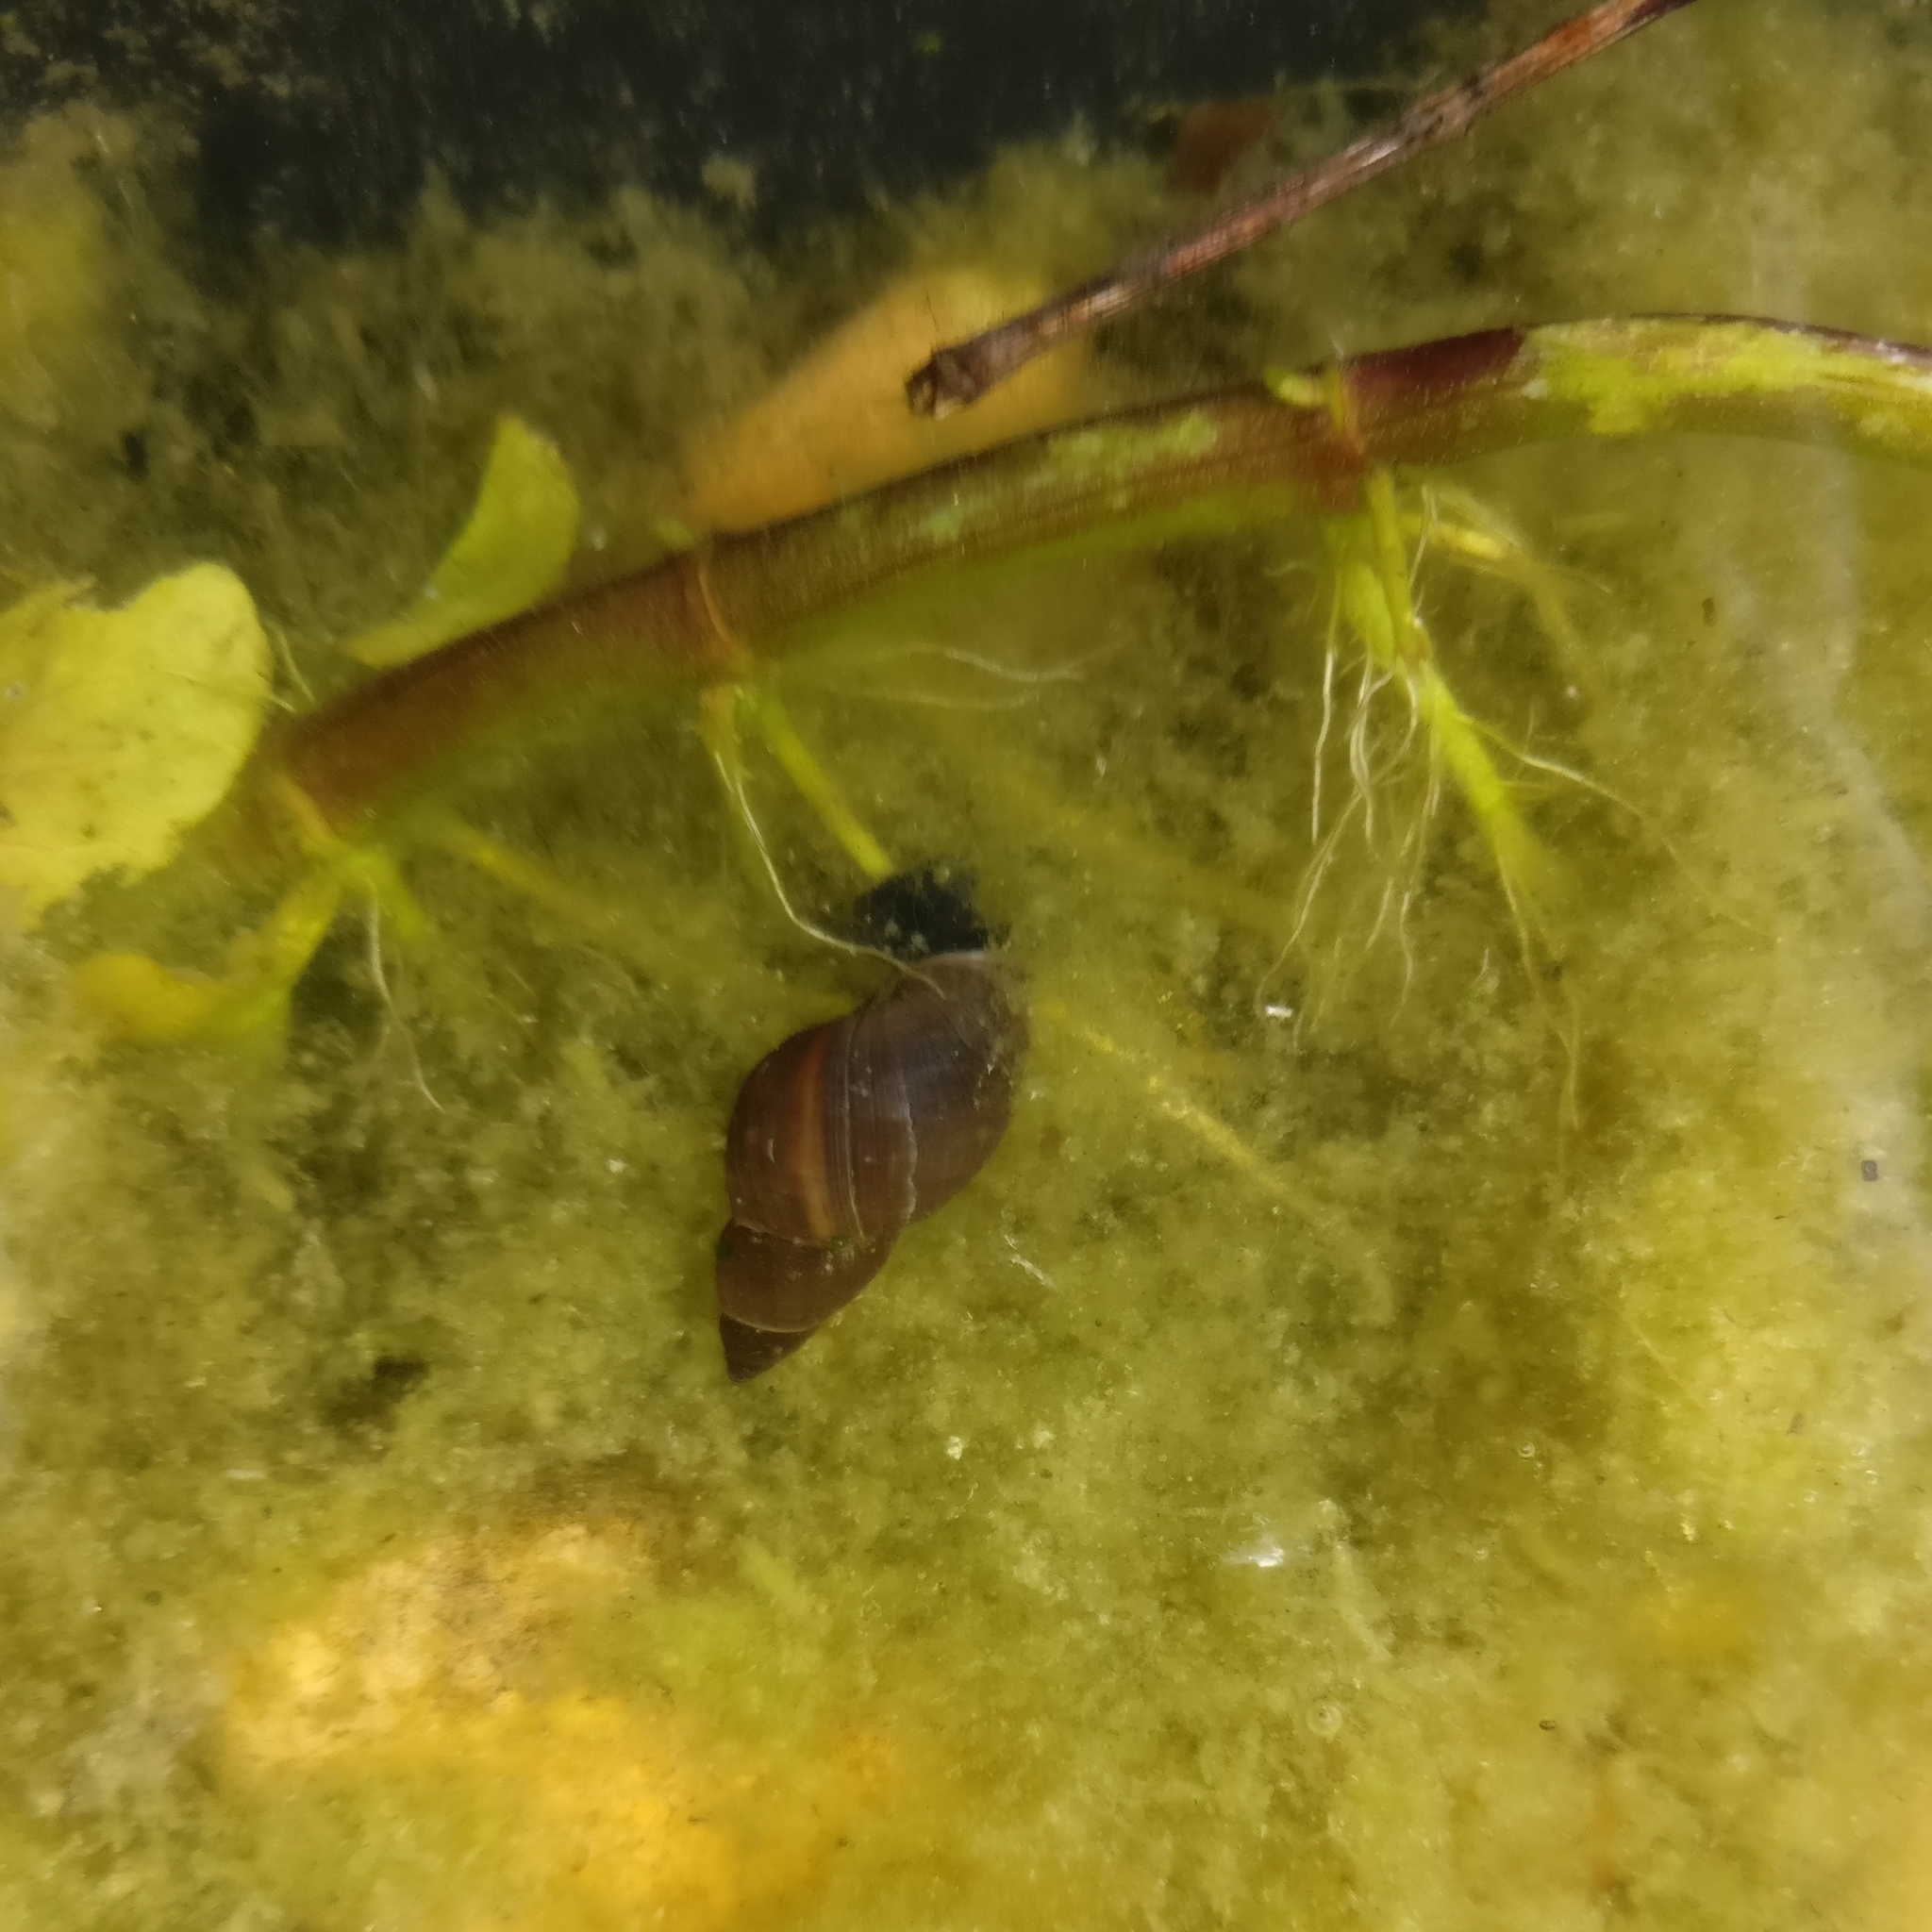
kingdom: Animalia
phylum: Mollusca
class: Gastropoda
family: Lymnaeidae
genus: Lymnaea
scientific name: Lymnaea stagnalis
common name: Great pond snail
